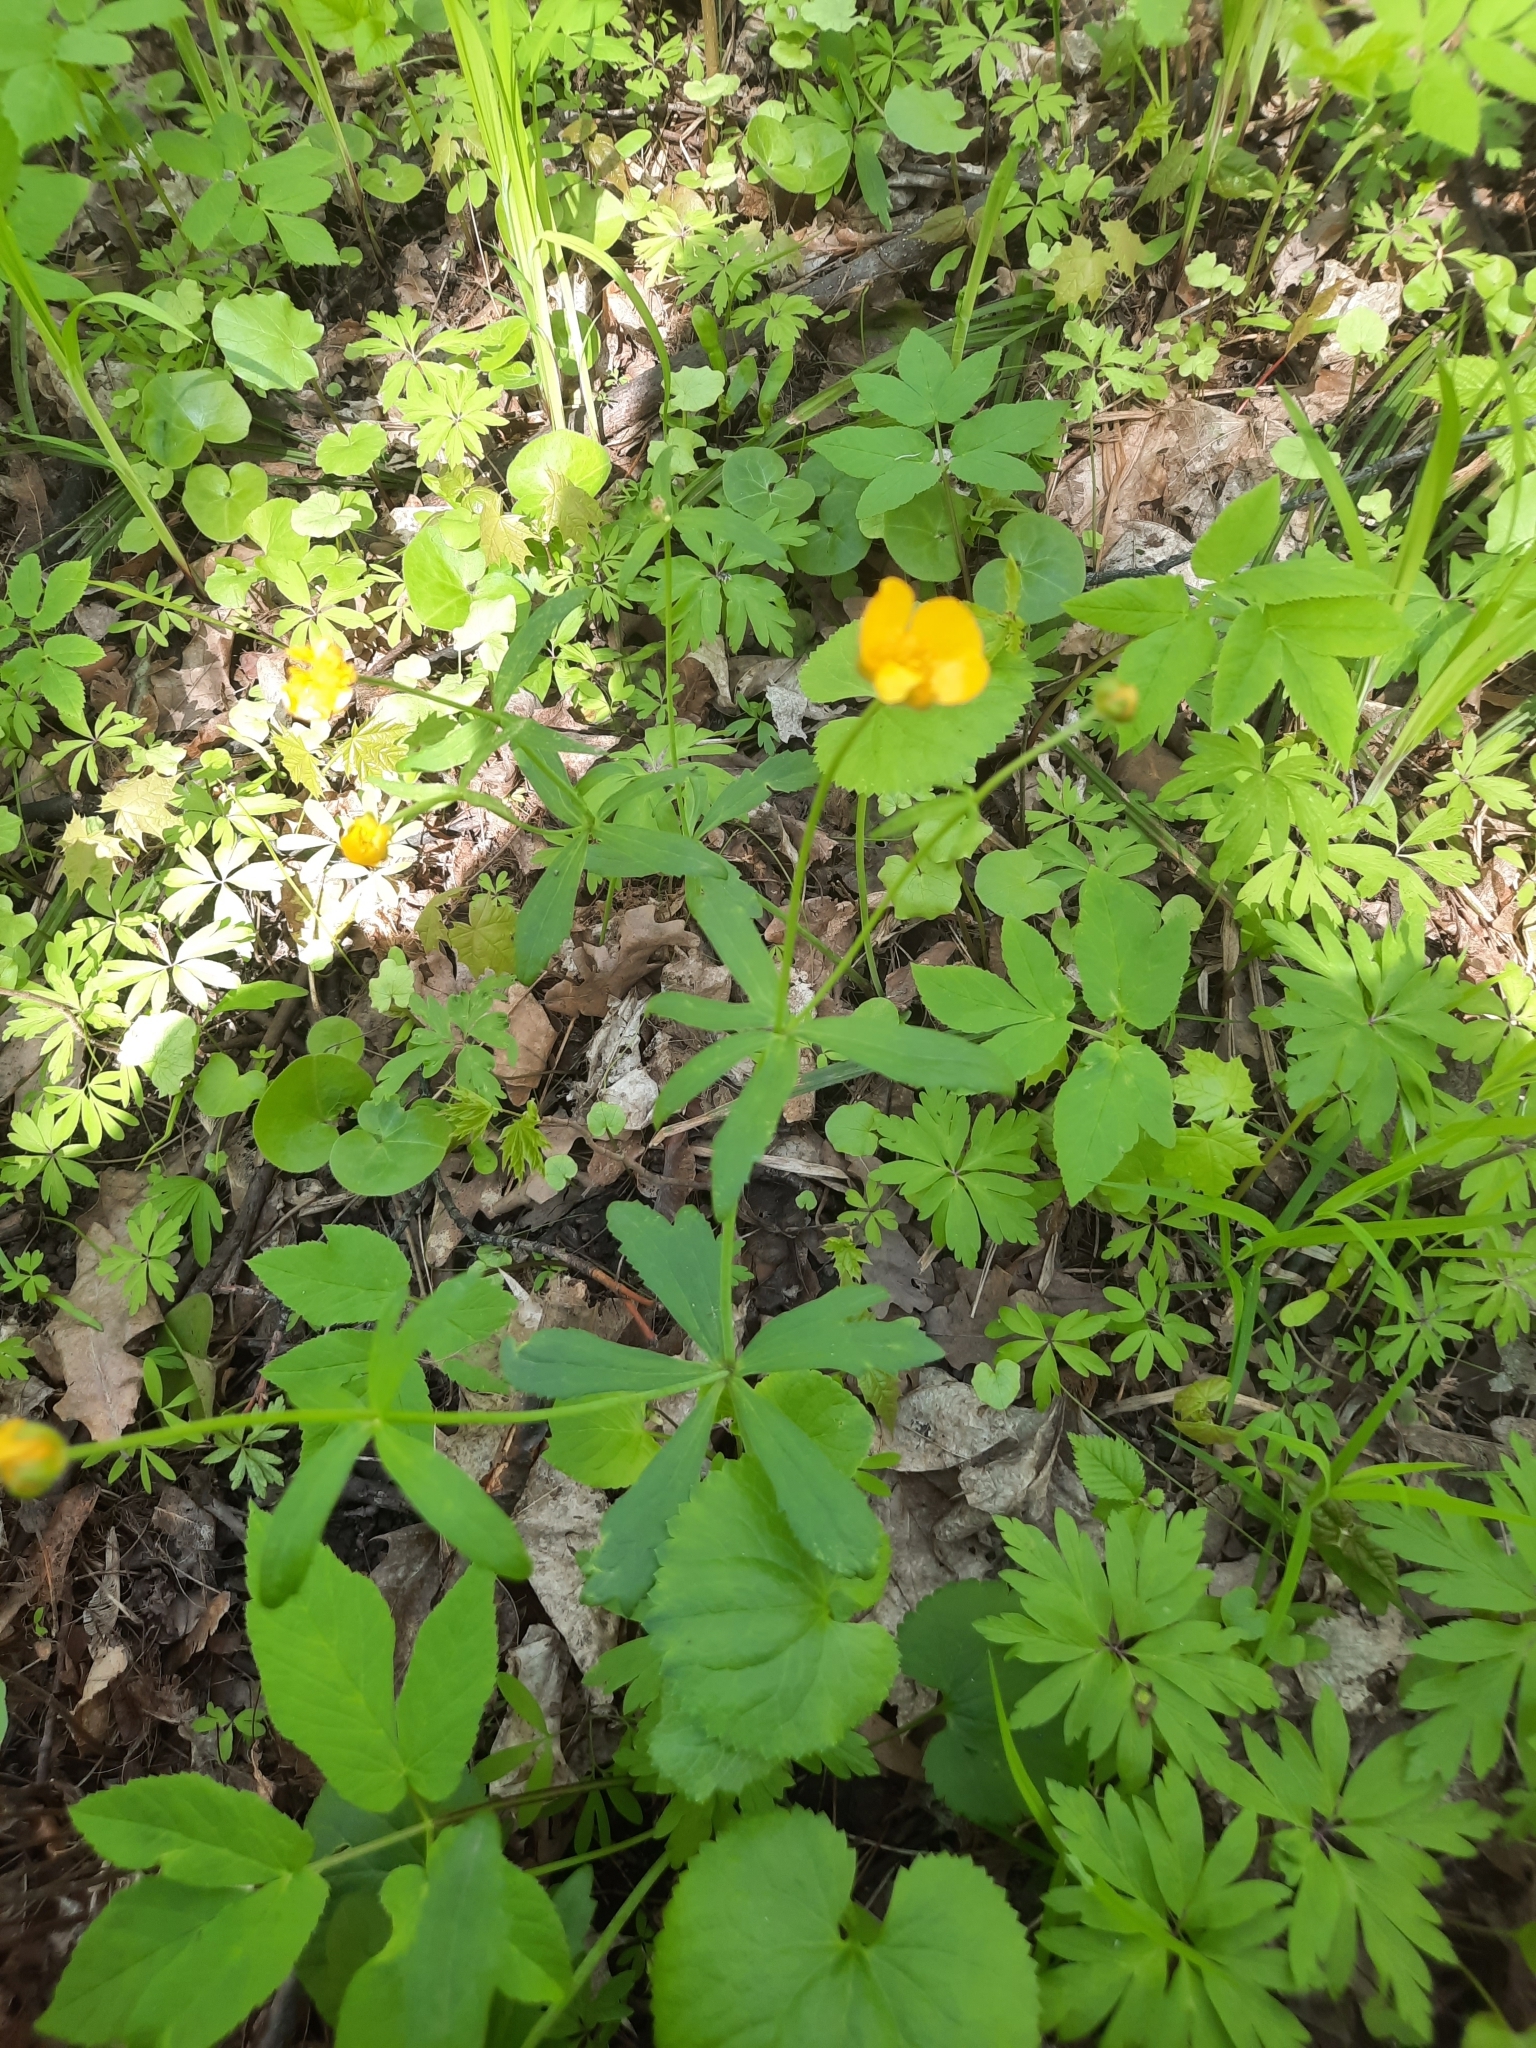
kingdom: Plantae
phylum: Tracheophyta
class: Magnoliopsida
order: Ranunculales
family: Ranunculaceae
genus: Ranunculus
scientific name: Ranunculus cassubicus
